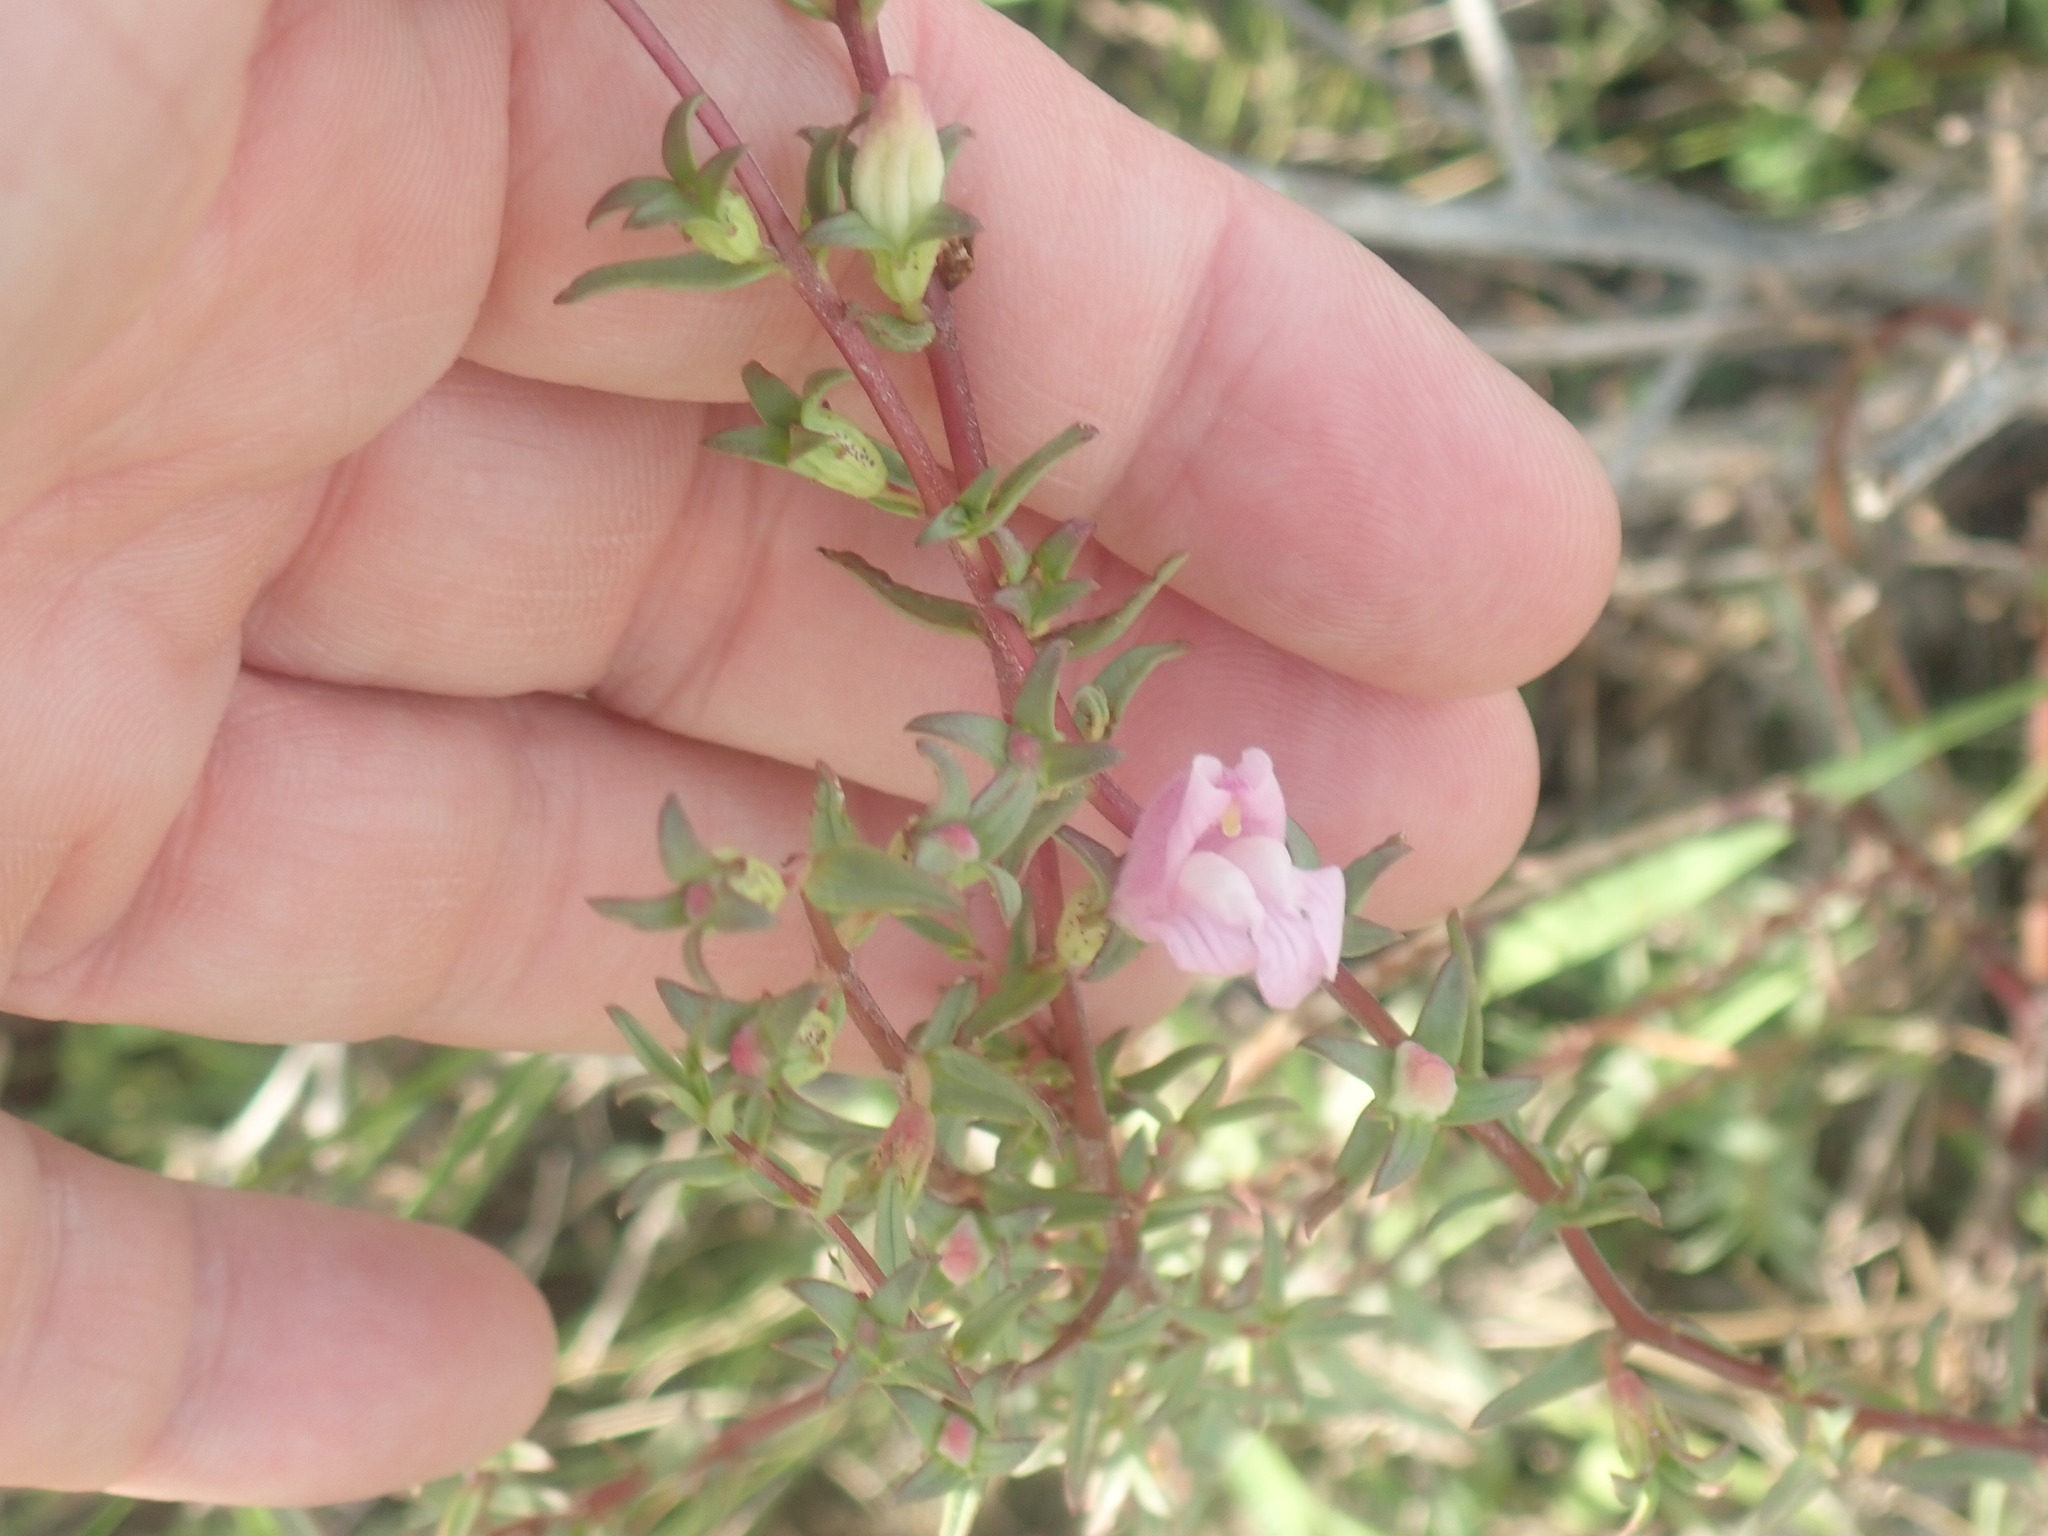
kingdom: Plantae
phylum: Tracheophyta
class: Magnoliopsida
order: Lamiales
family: Orobanchaceae
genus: Lamourouxia
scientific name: Lamourouxia dasyantha
